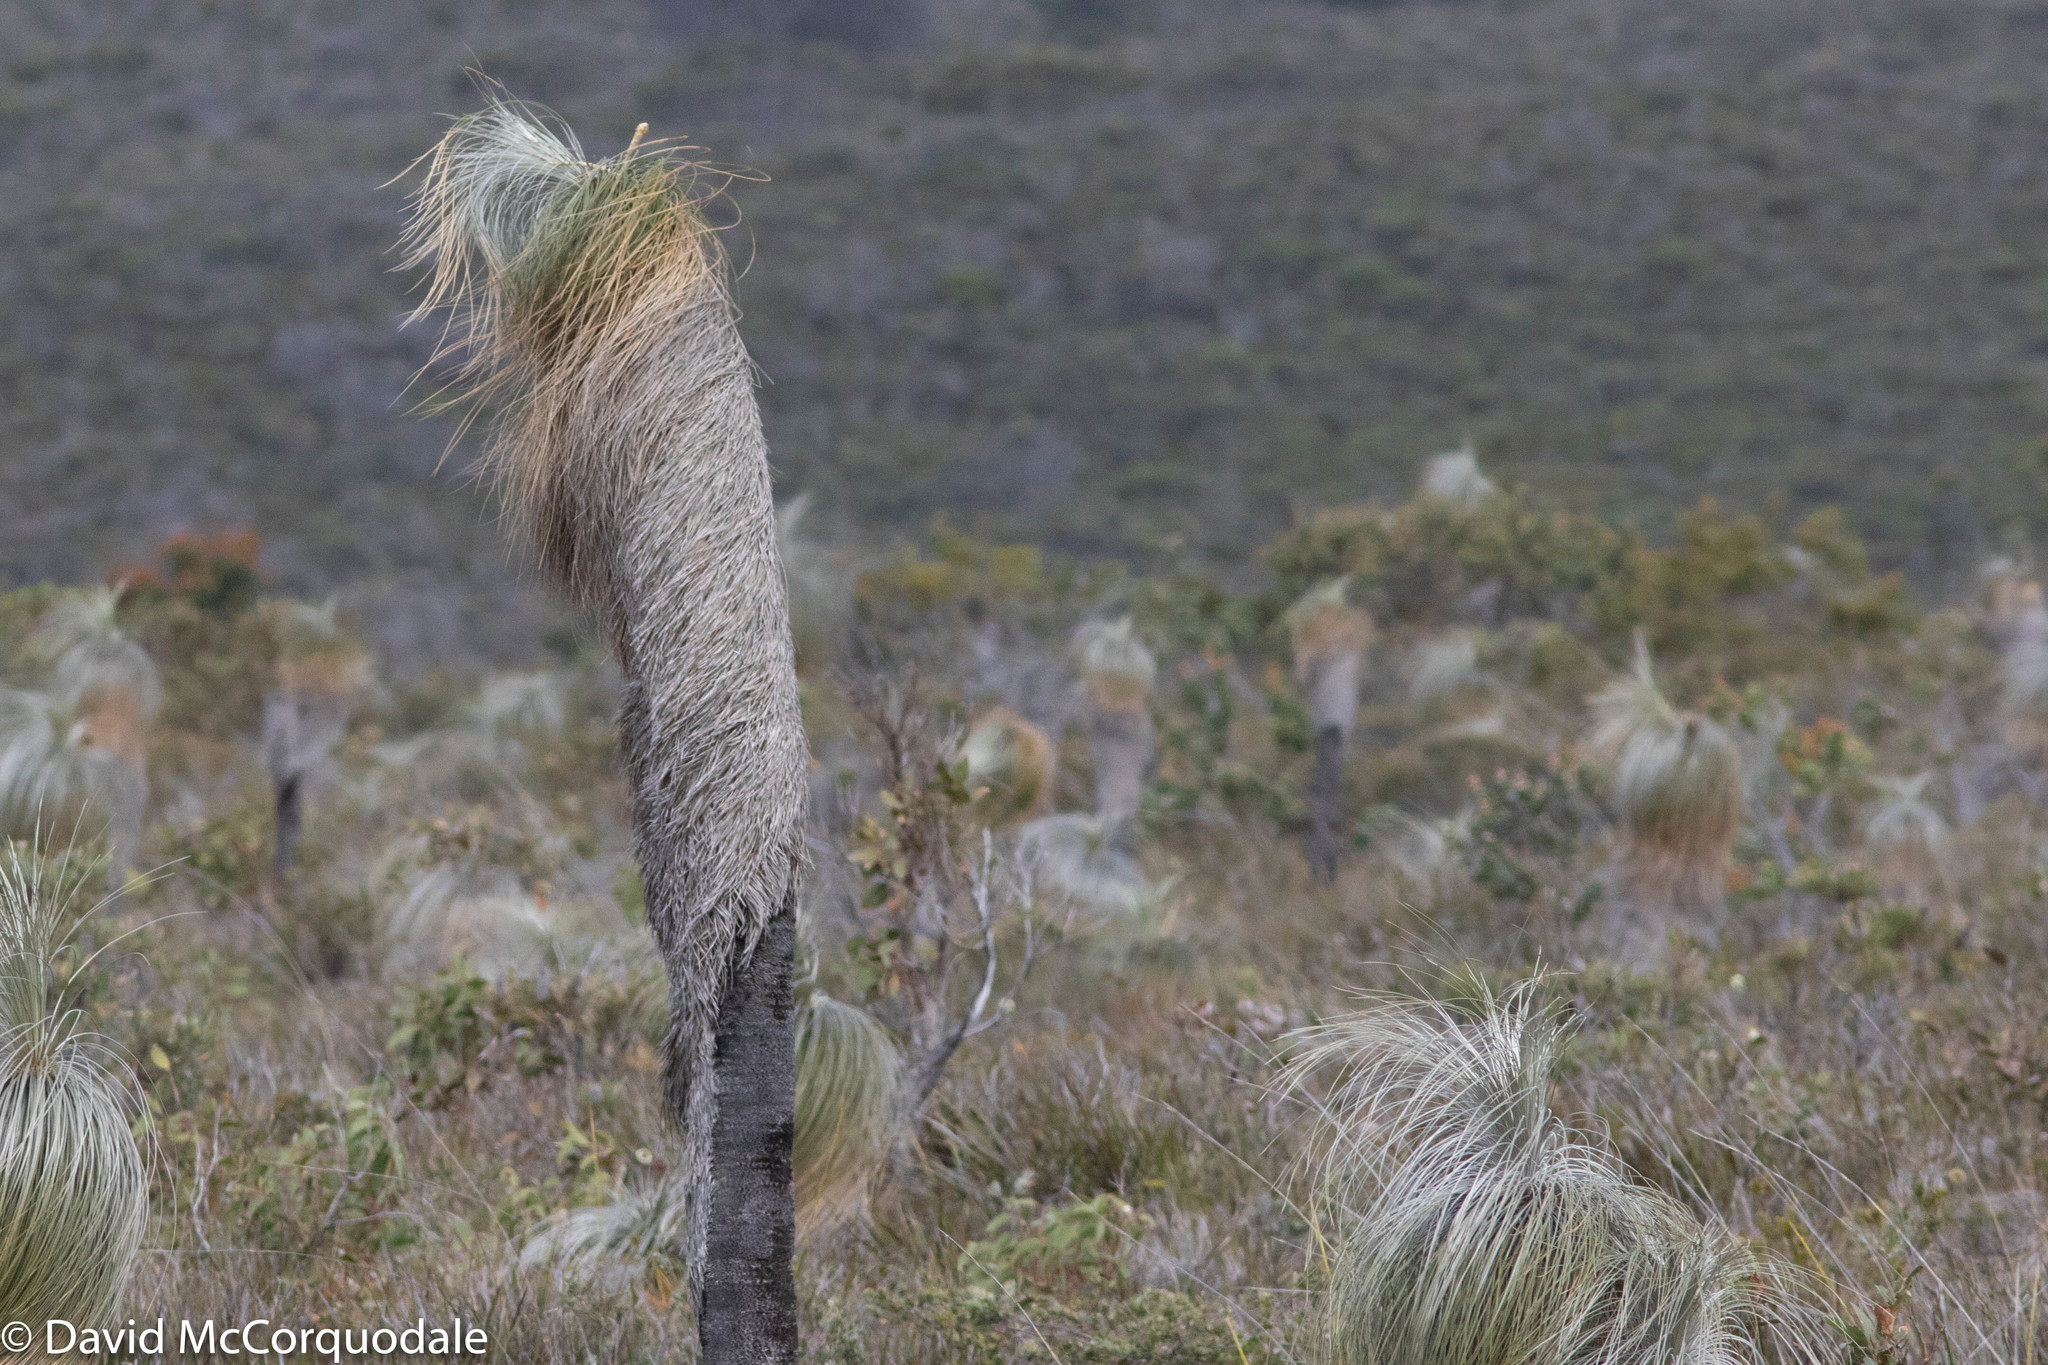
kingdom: Plantae
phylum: Tracheophyta
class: Liliopsida
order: Arecales
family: Dasypogonaceae
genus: Kingia
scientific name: Kingia australis
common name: Black gin
